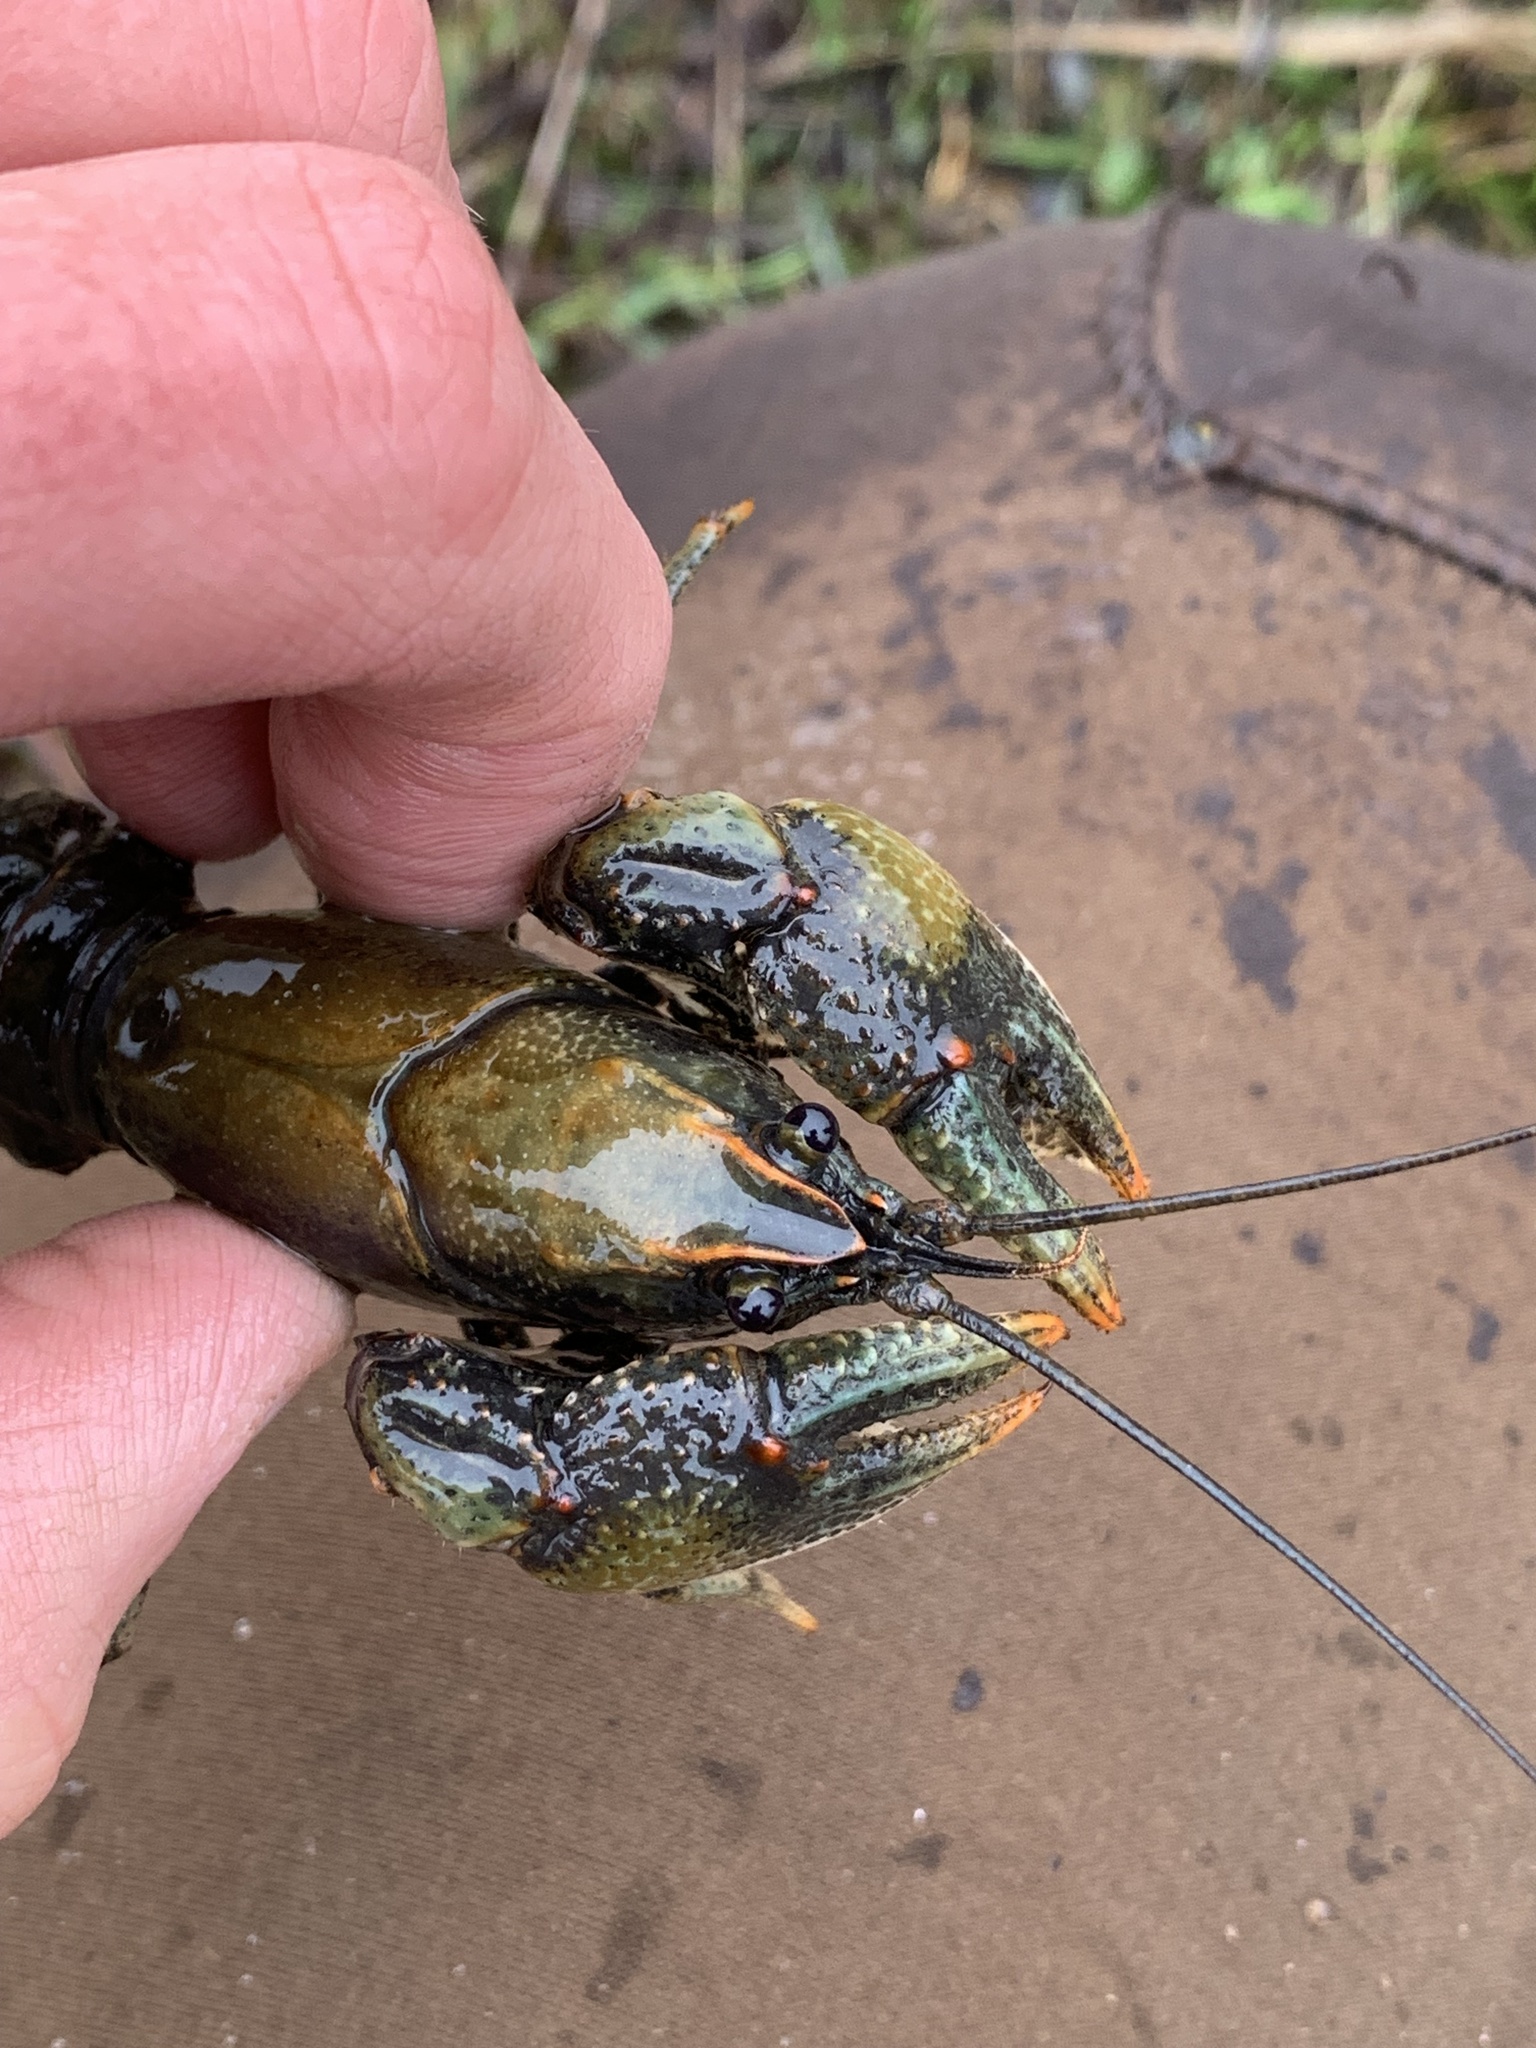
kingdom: Animalia
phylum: Arthropoda
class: Malacostraca
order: Decapoda
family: Cambaridae
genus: Lacunicambarus
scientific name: Lacunicambarus polychromatus
